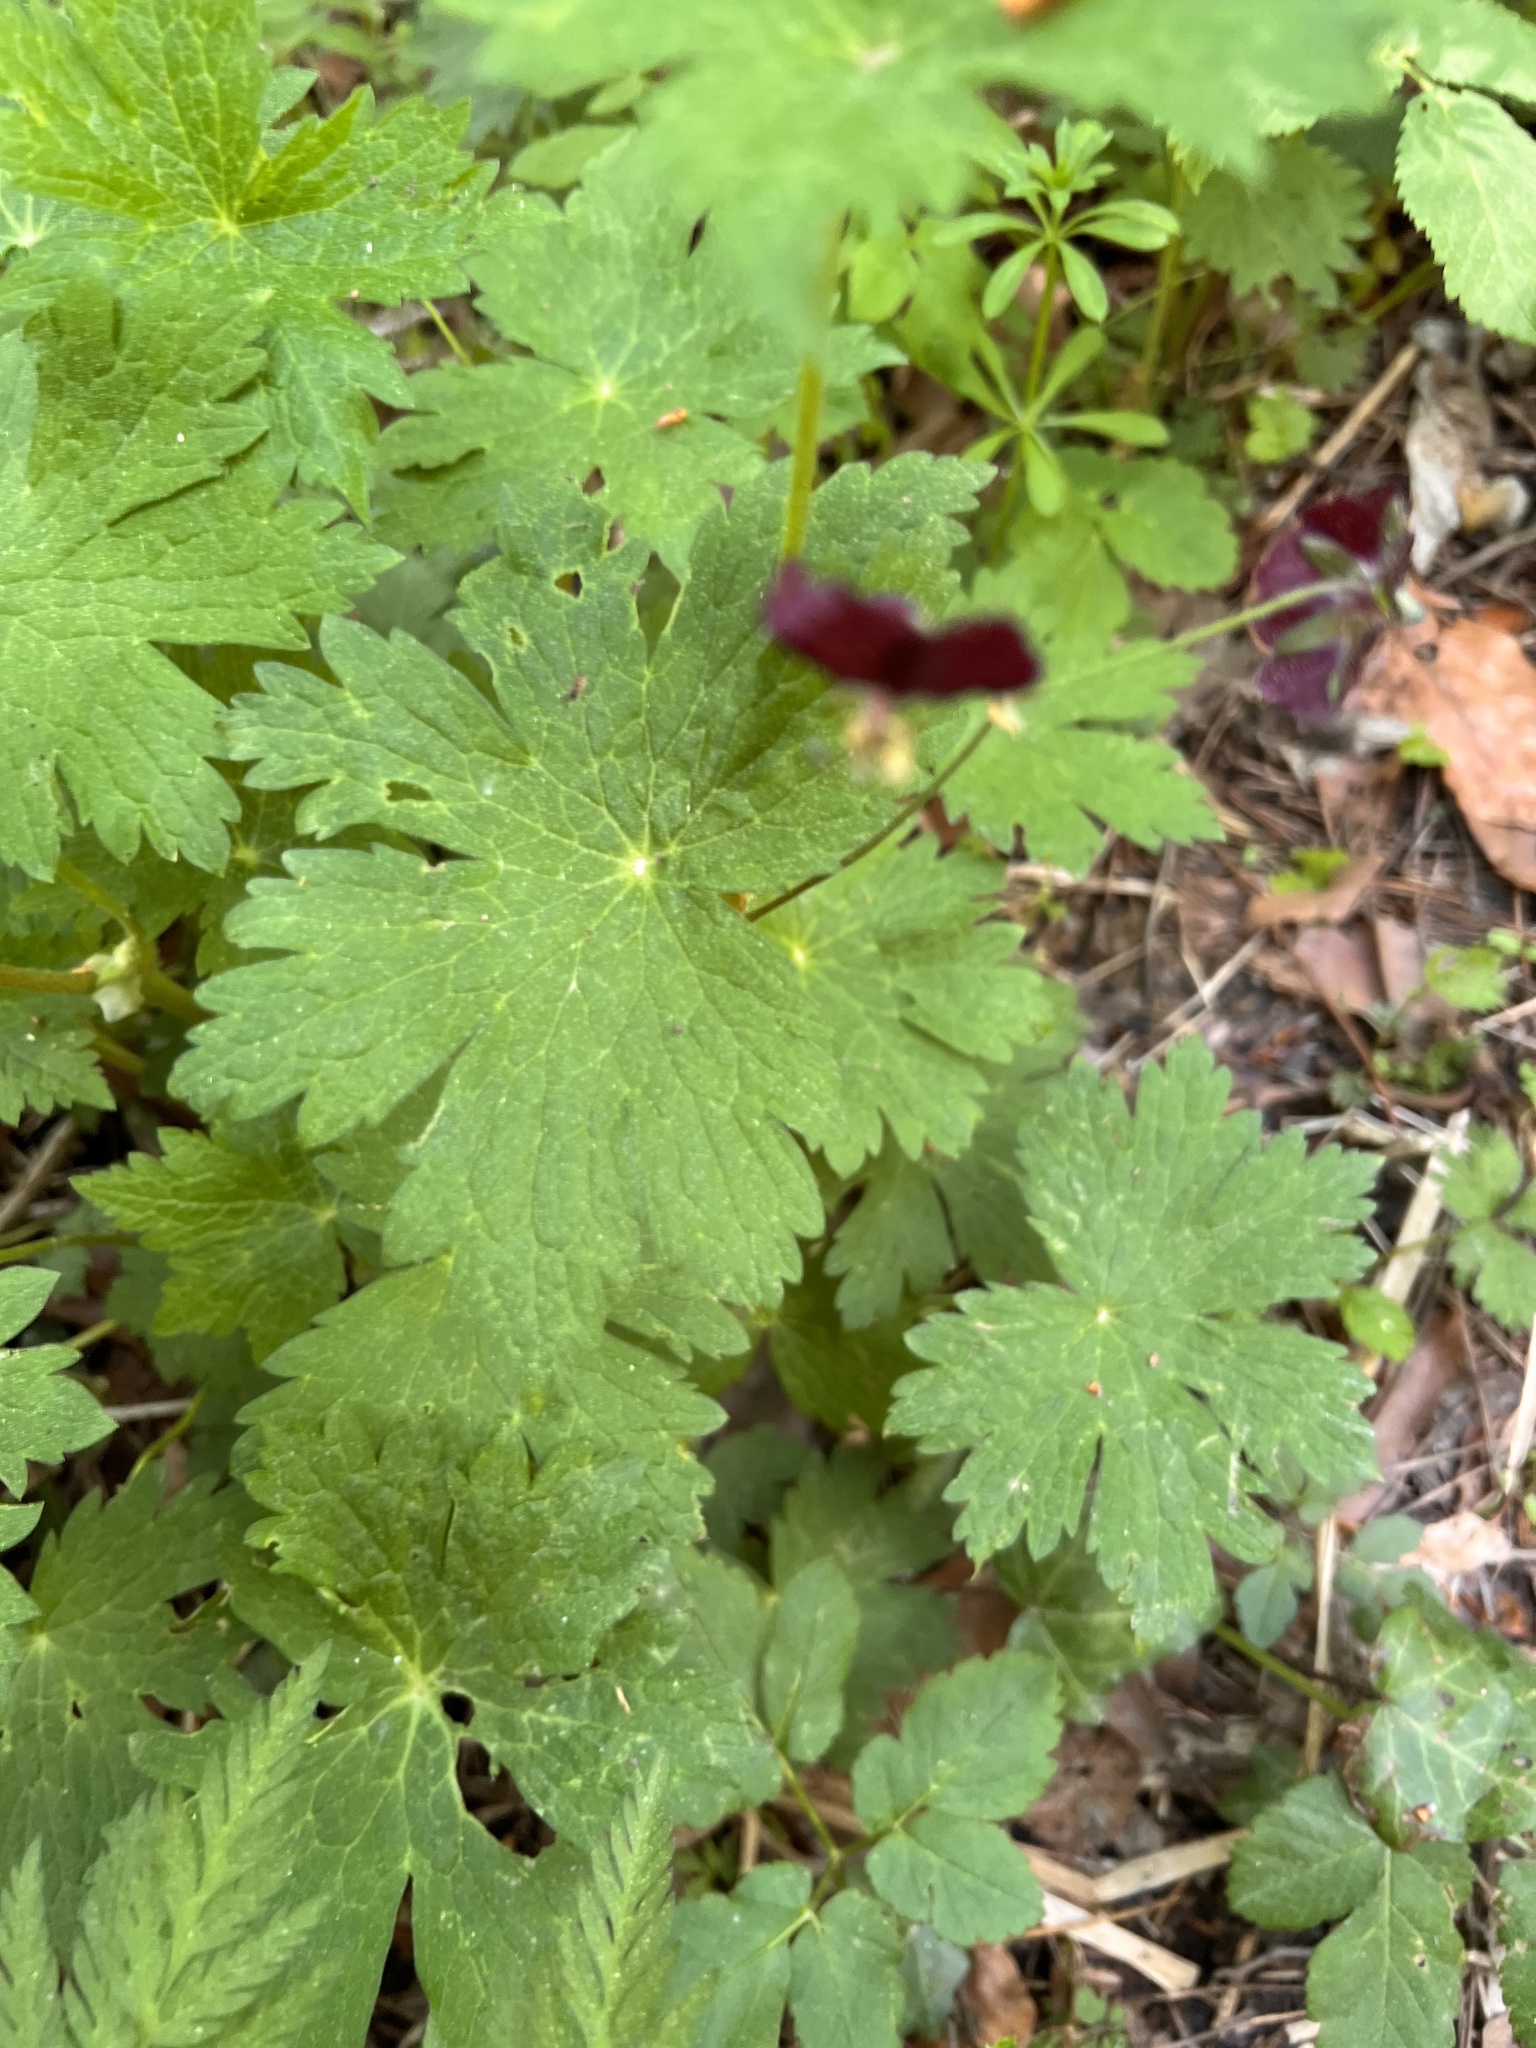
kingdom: Plantae
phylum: Tracheophyta
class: Magnoliopsida
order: Geraniales
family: Geraniaceae
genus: Geranium
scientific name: Geranium phaeum
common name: Dusky crane's-bill
